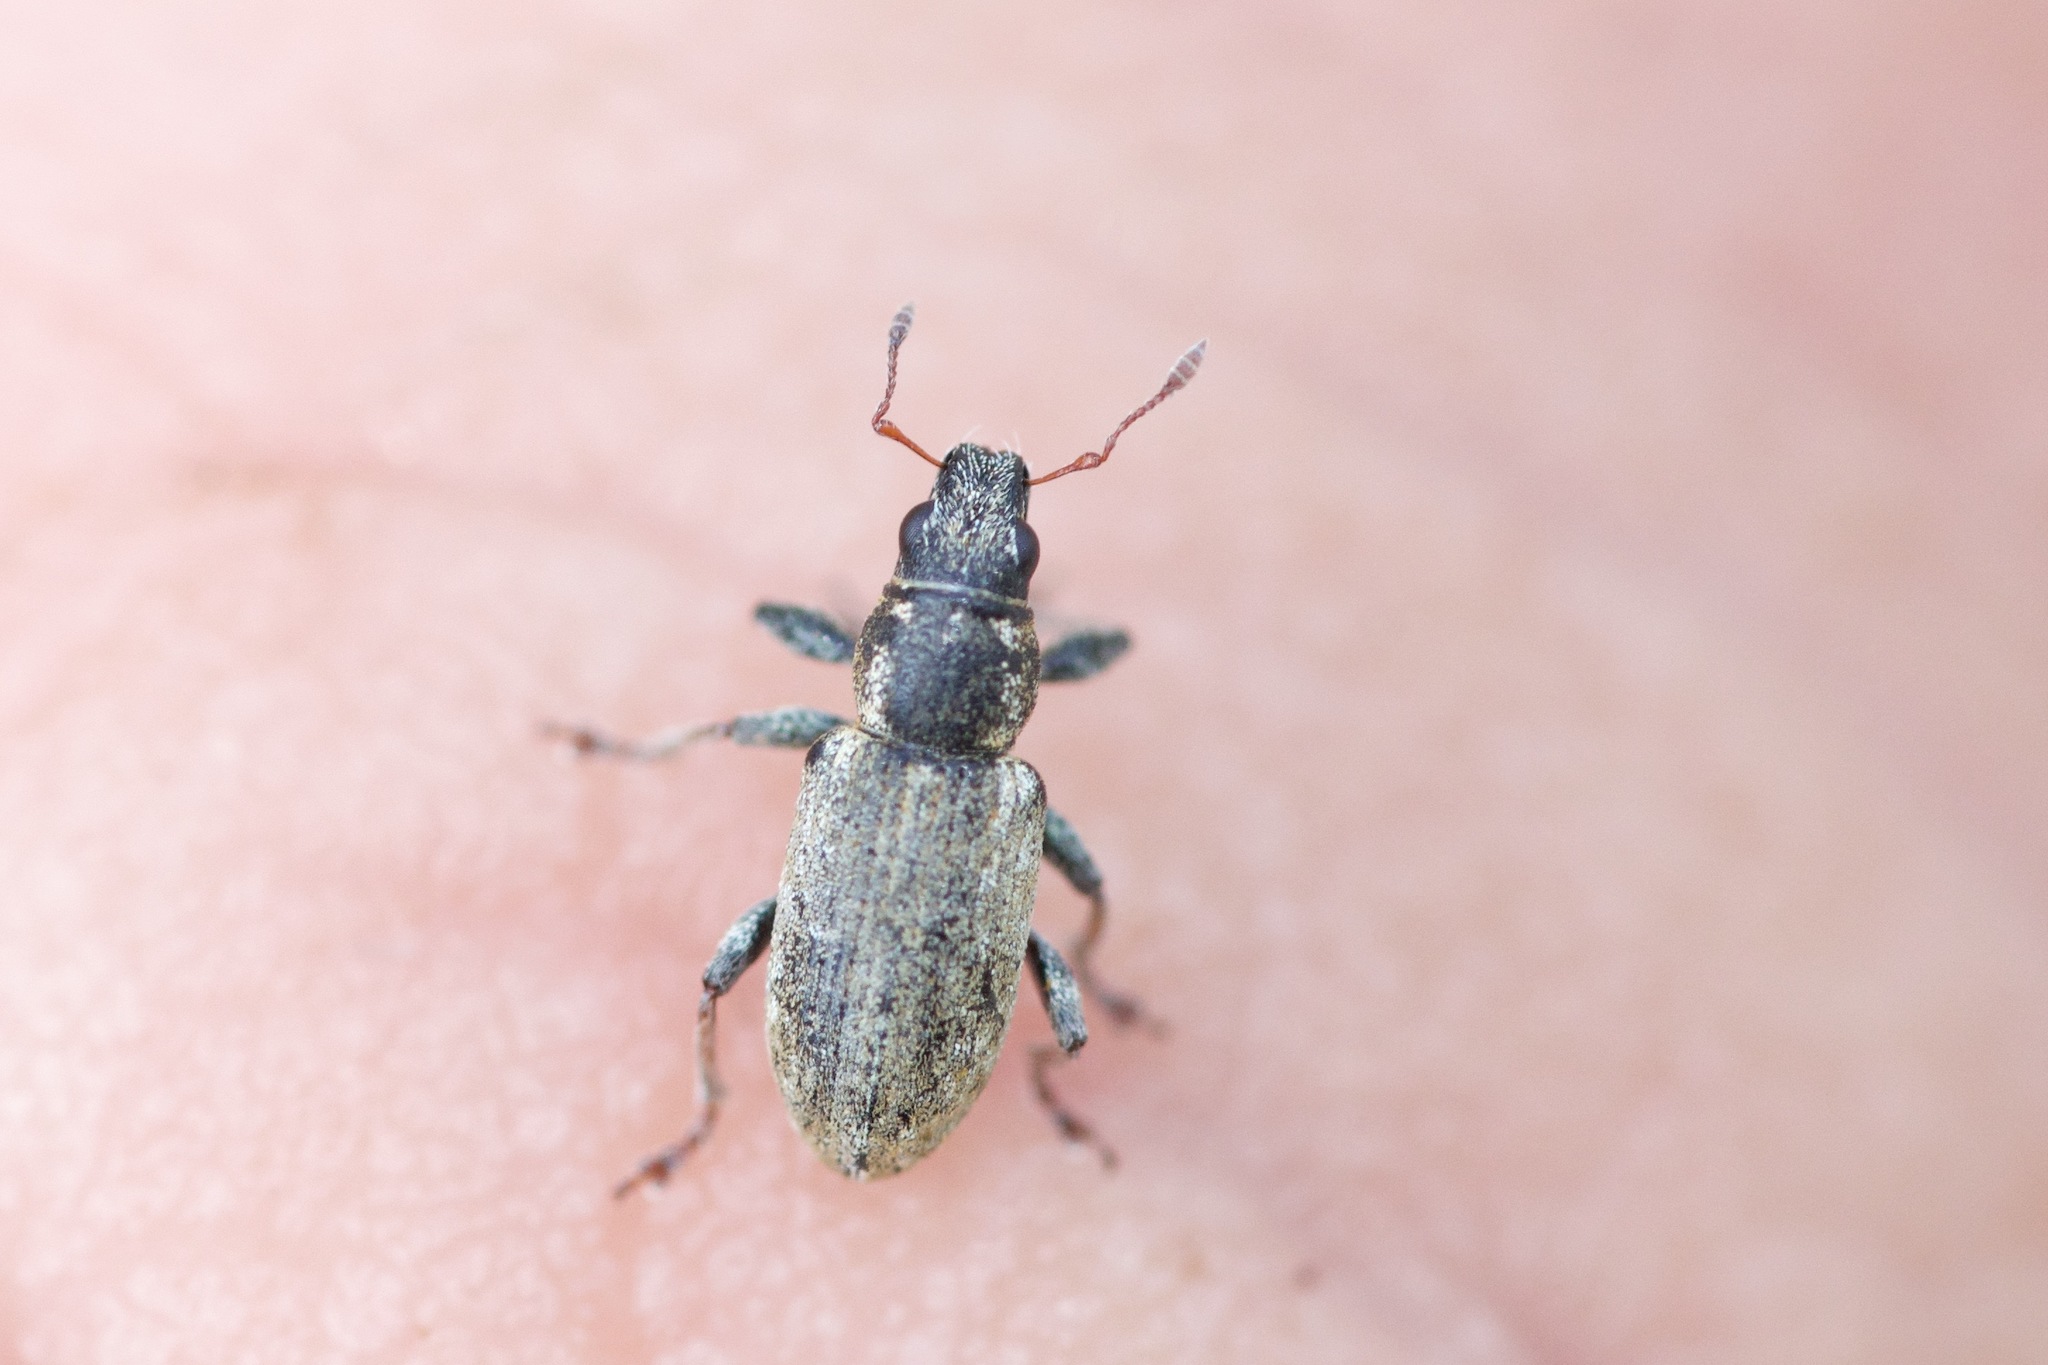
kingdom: Animalia
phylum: Arthropoda
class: Insecta
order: Coleoptera
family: Curculionidae
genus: Sitona
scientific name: Sitona cylindricollis
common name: Weevil
